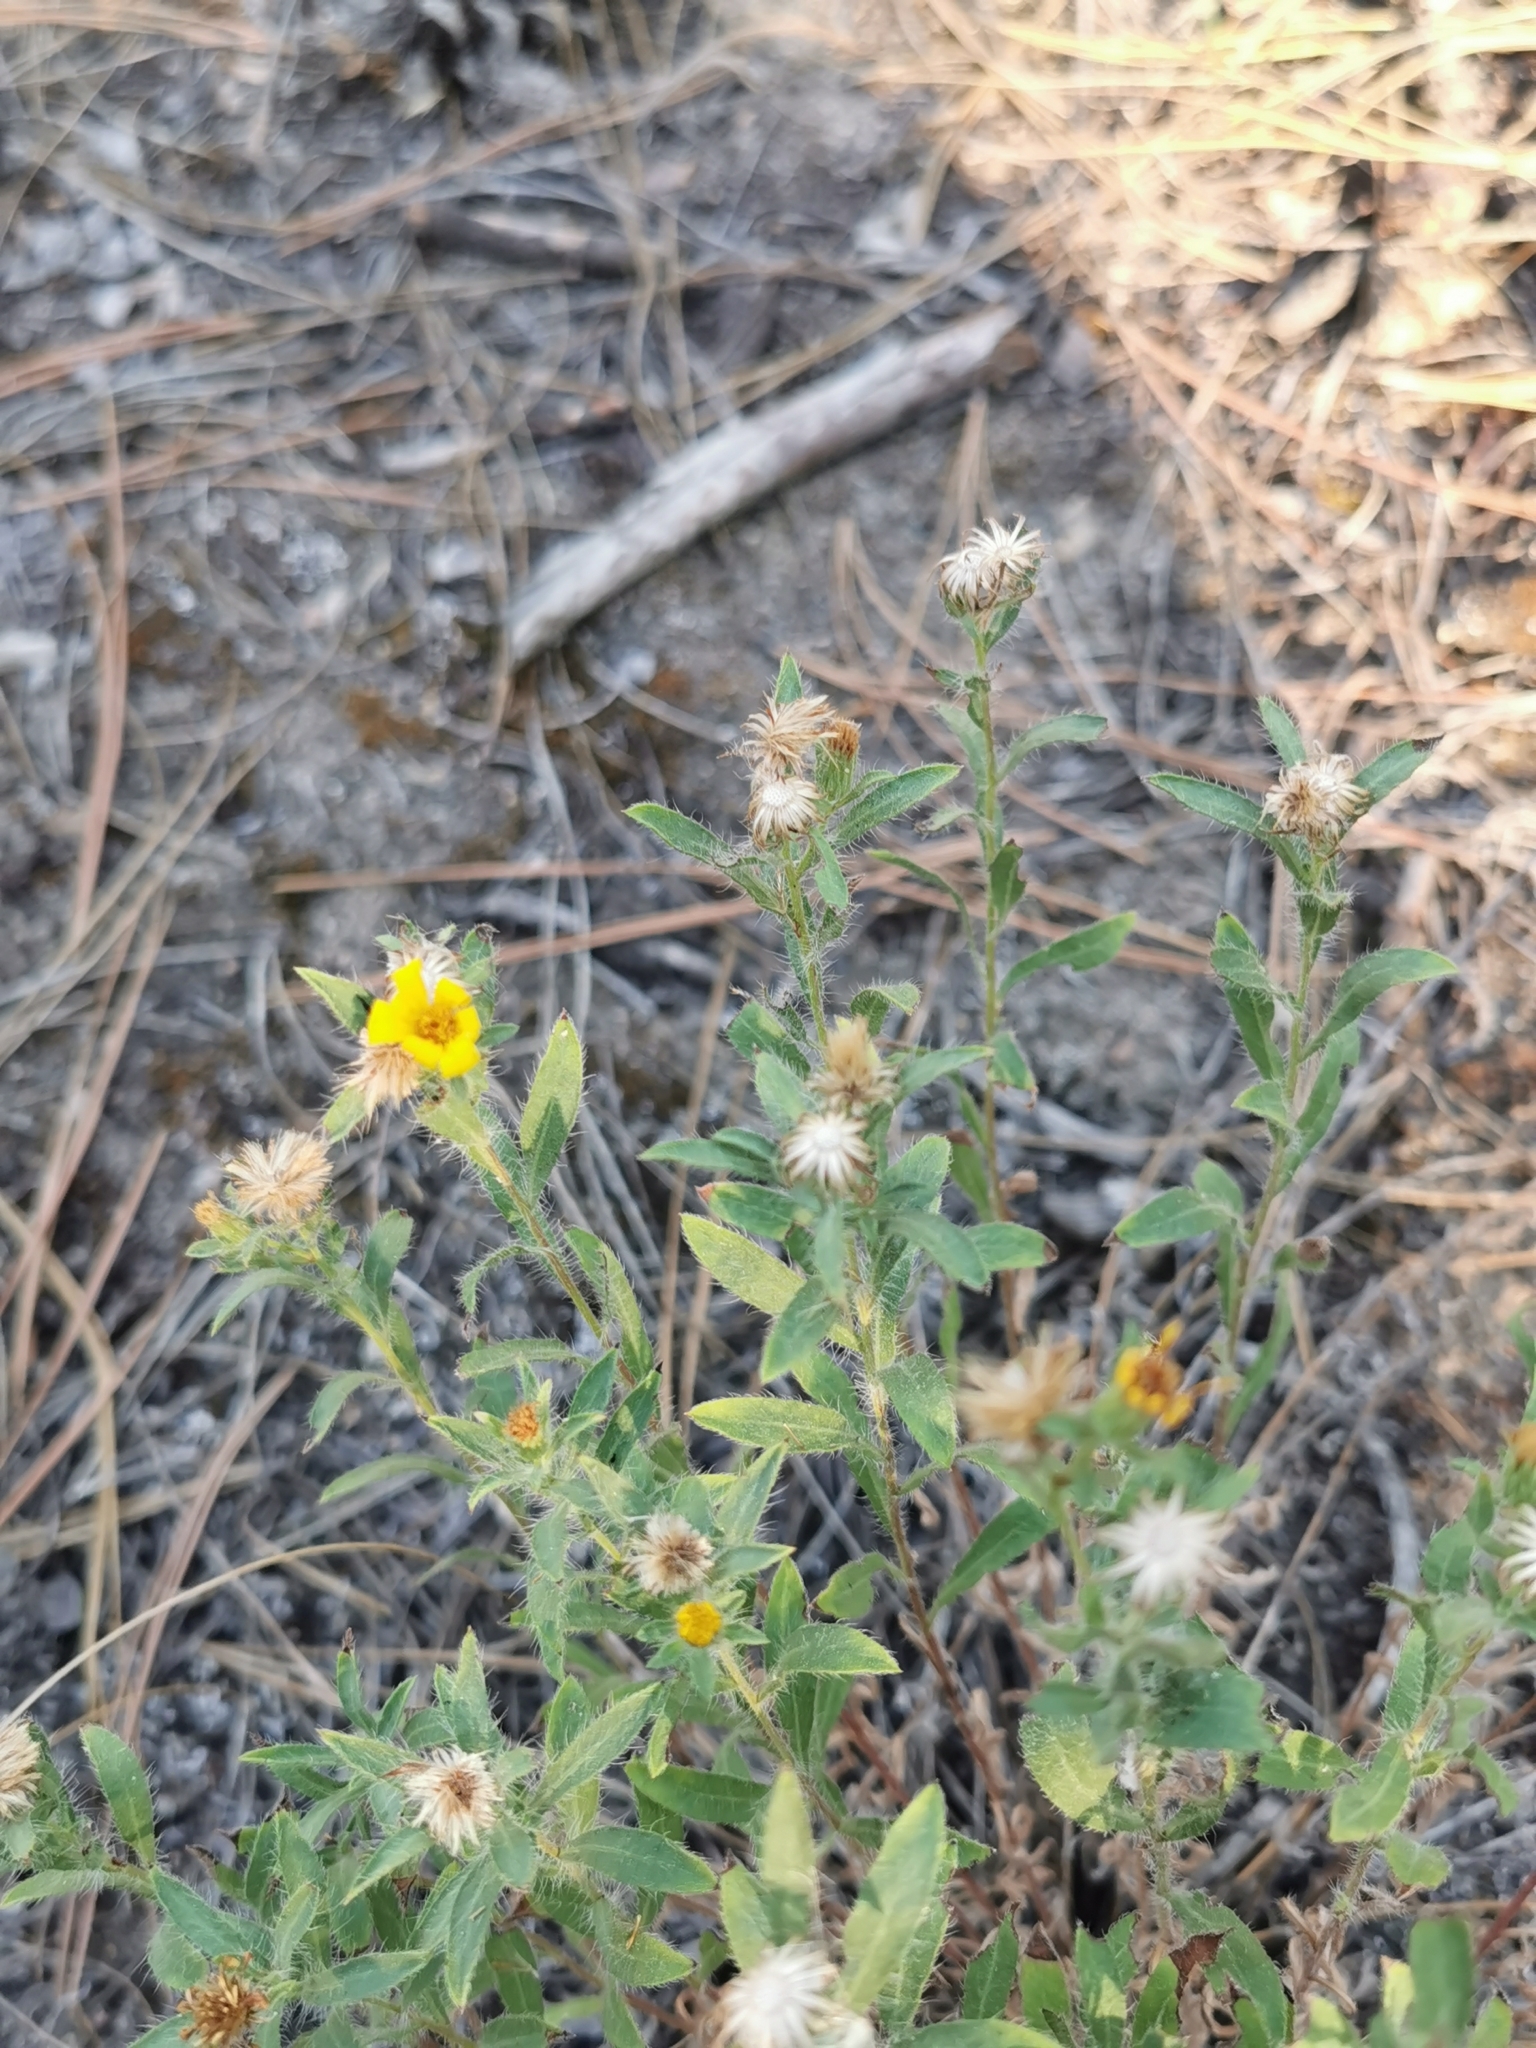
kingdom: Plantae
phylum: Tracheophyta
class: Magnoliopsida
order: Asterales
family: Asteraceae
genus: Heterotheca
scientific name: Heterotheca villosa
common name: Hairy false goldenaster
